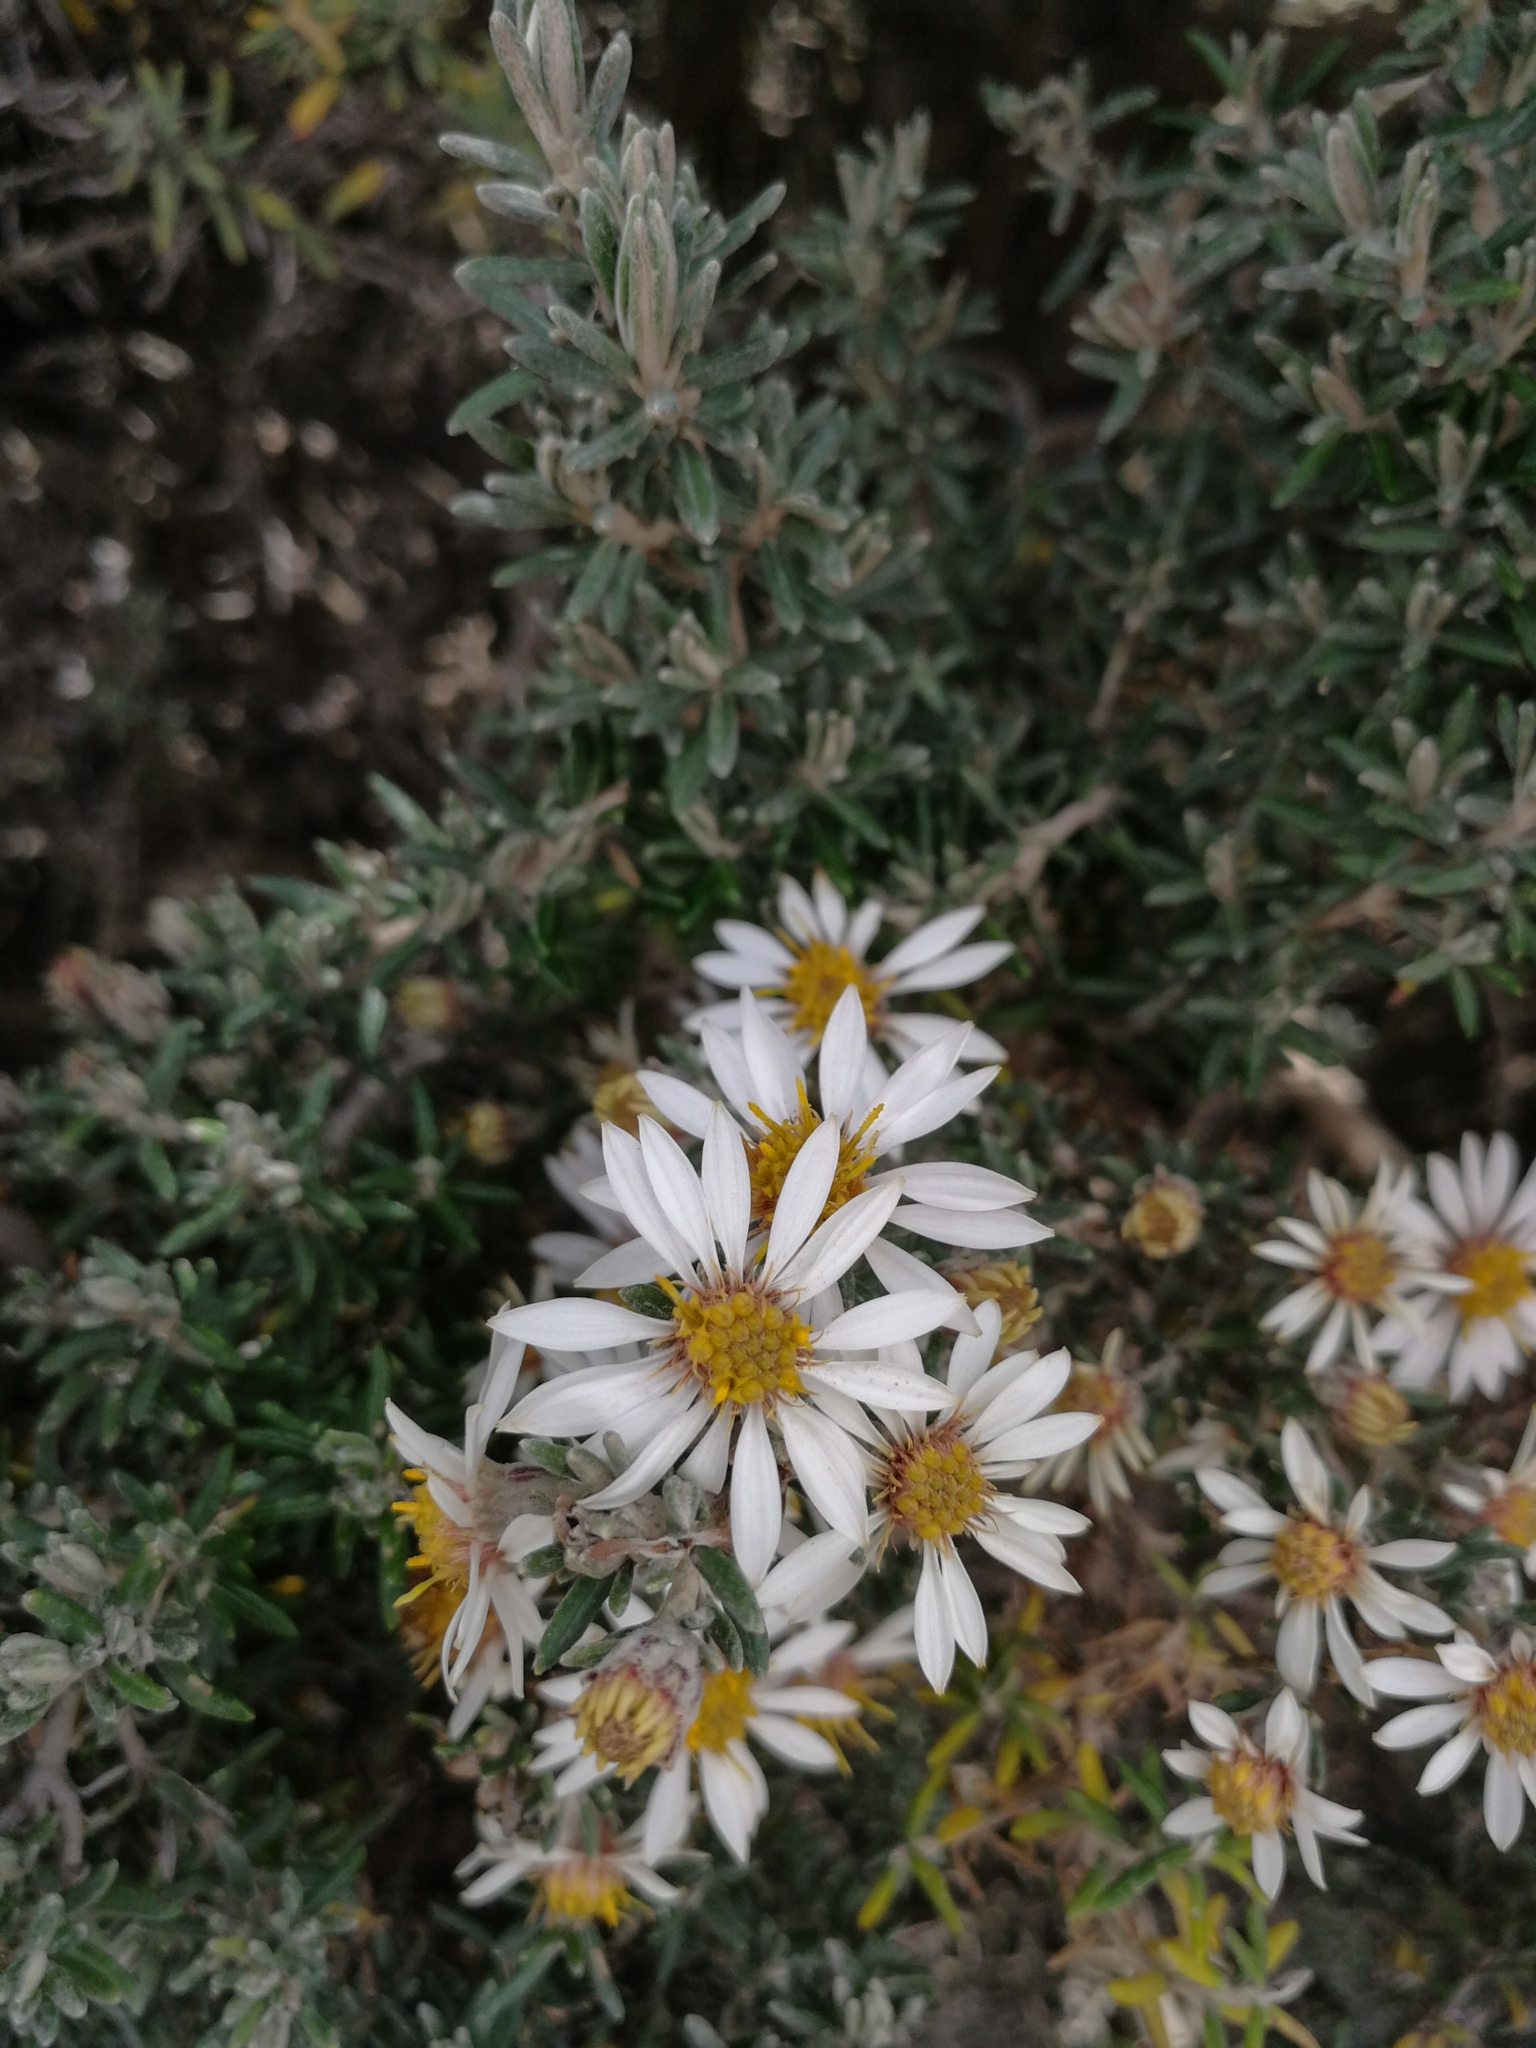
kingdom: Plantae
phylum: Tracheophyta
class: Magnoliopsida
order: Asterales
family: Asteraceae
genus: Diplostephium
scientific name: Diplostephium ericoides
